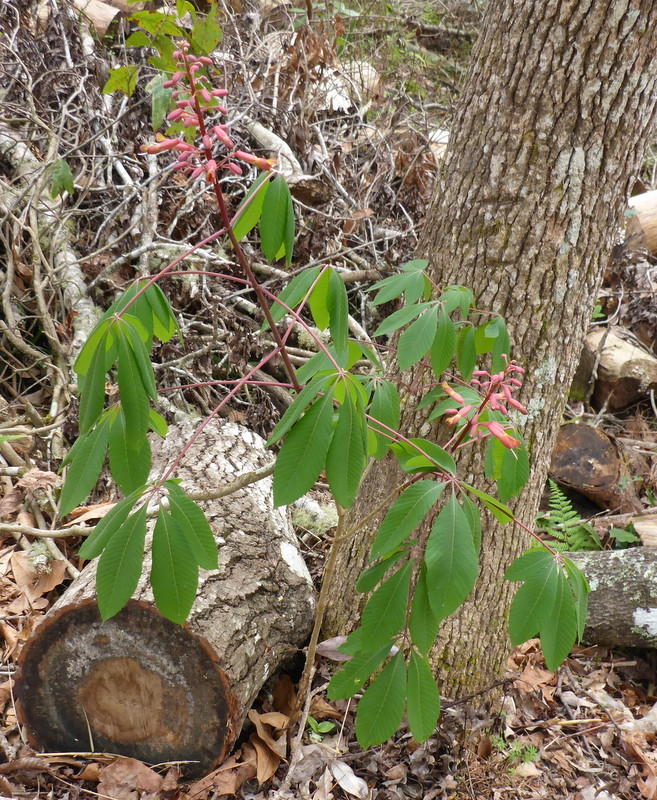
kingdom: Plantae
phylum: Tracheophyta
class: Magnoliopsida
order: Sapindales
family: Sapindaceae
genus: Aesculus
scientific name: Aesculus pavia
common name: Red buckeye
